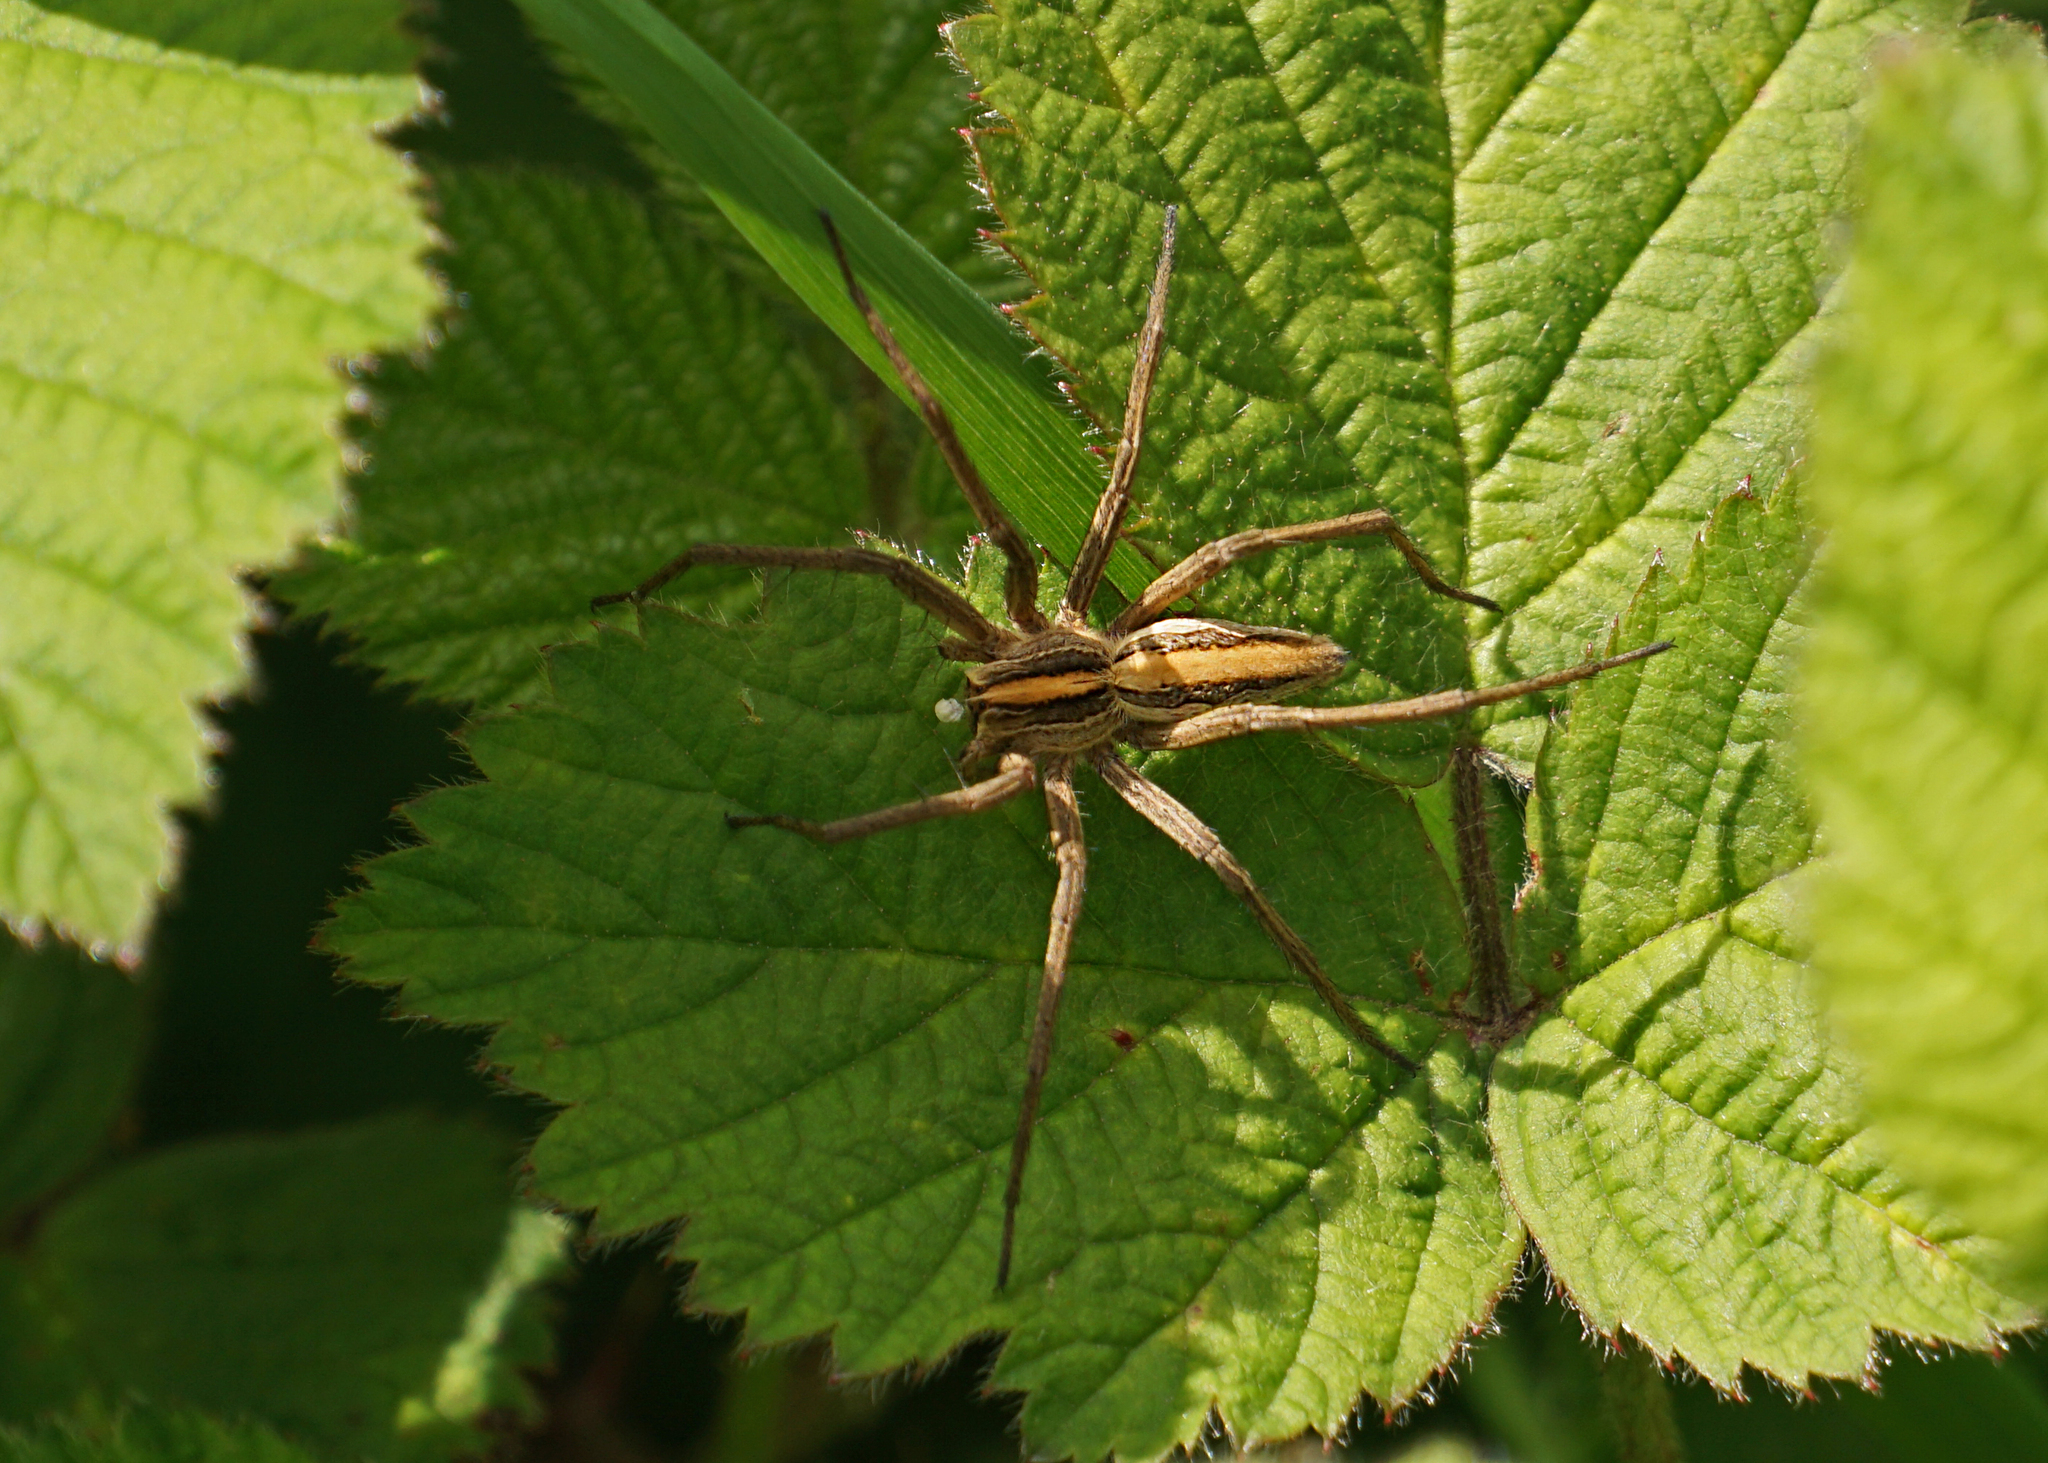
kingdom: Animalia
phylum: Arthropoda
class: Arachnida
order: Araneae
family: Pisauridae
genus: Pisaura
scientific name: Pisaura mirabilis
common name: Tent spider
